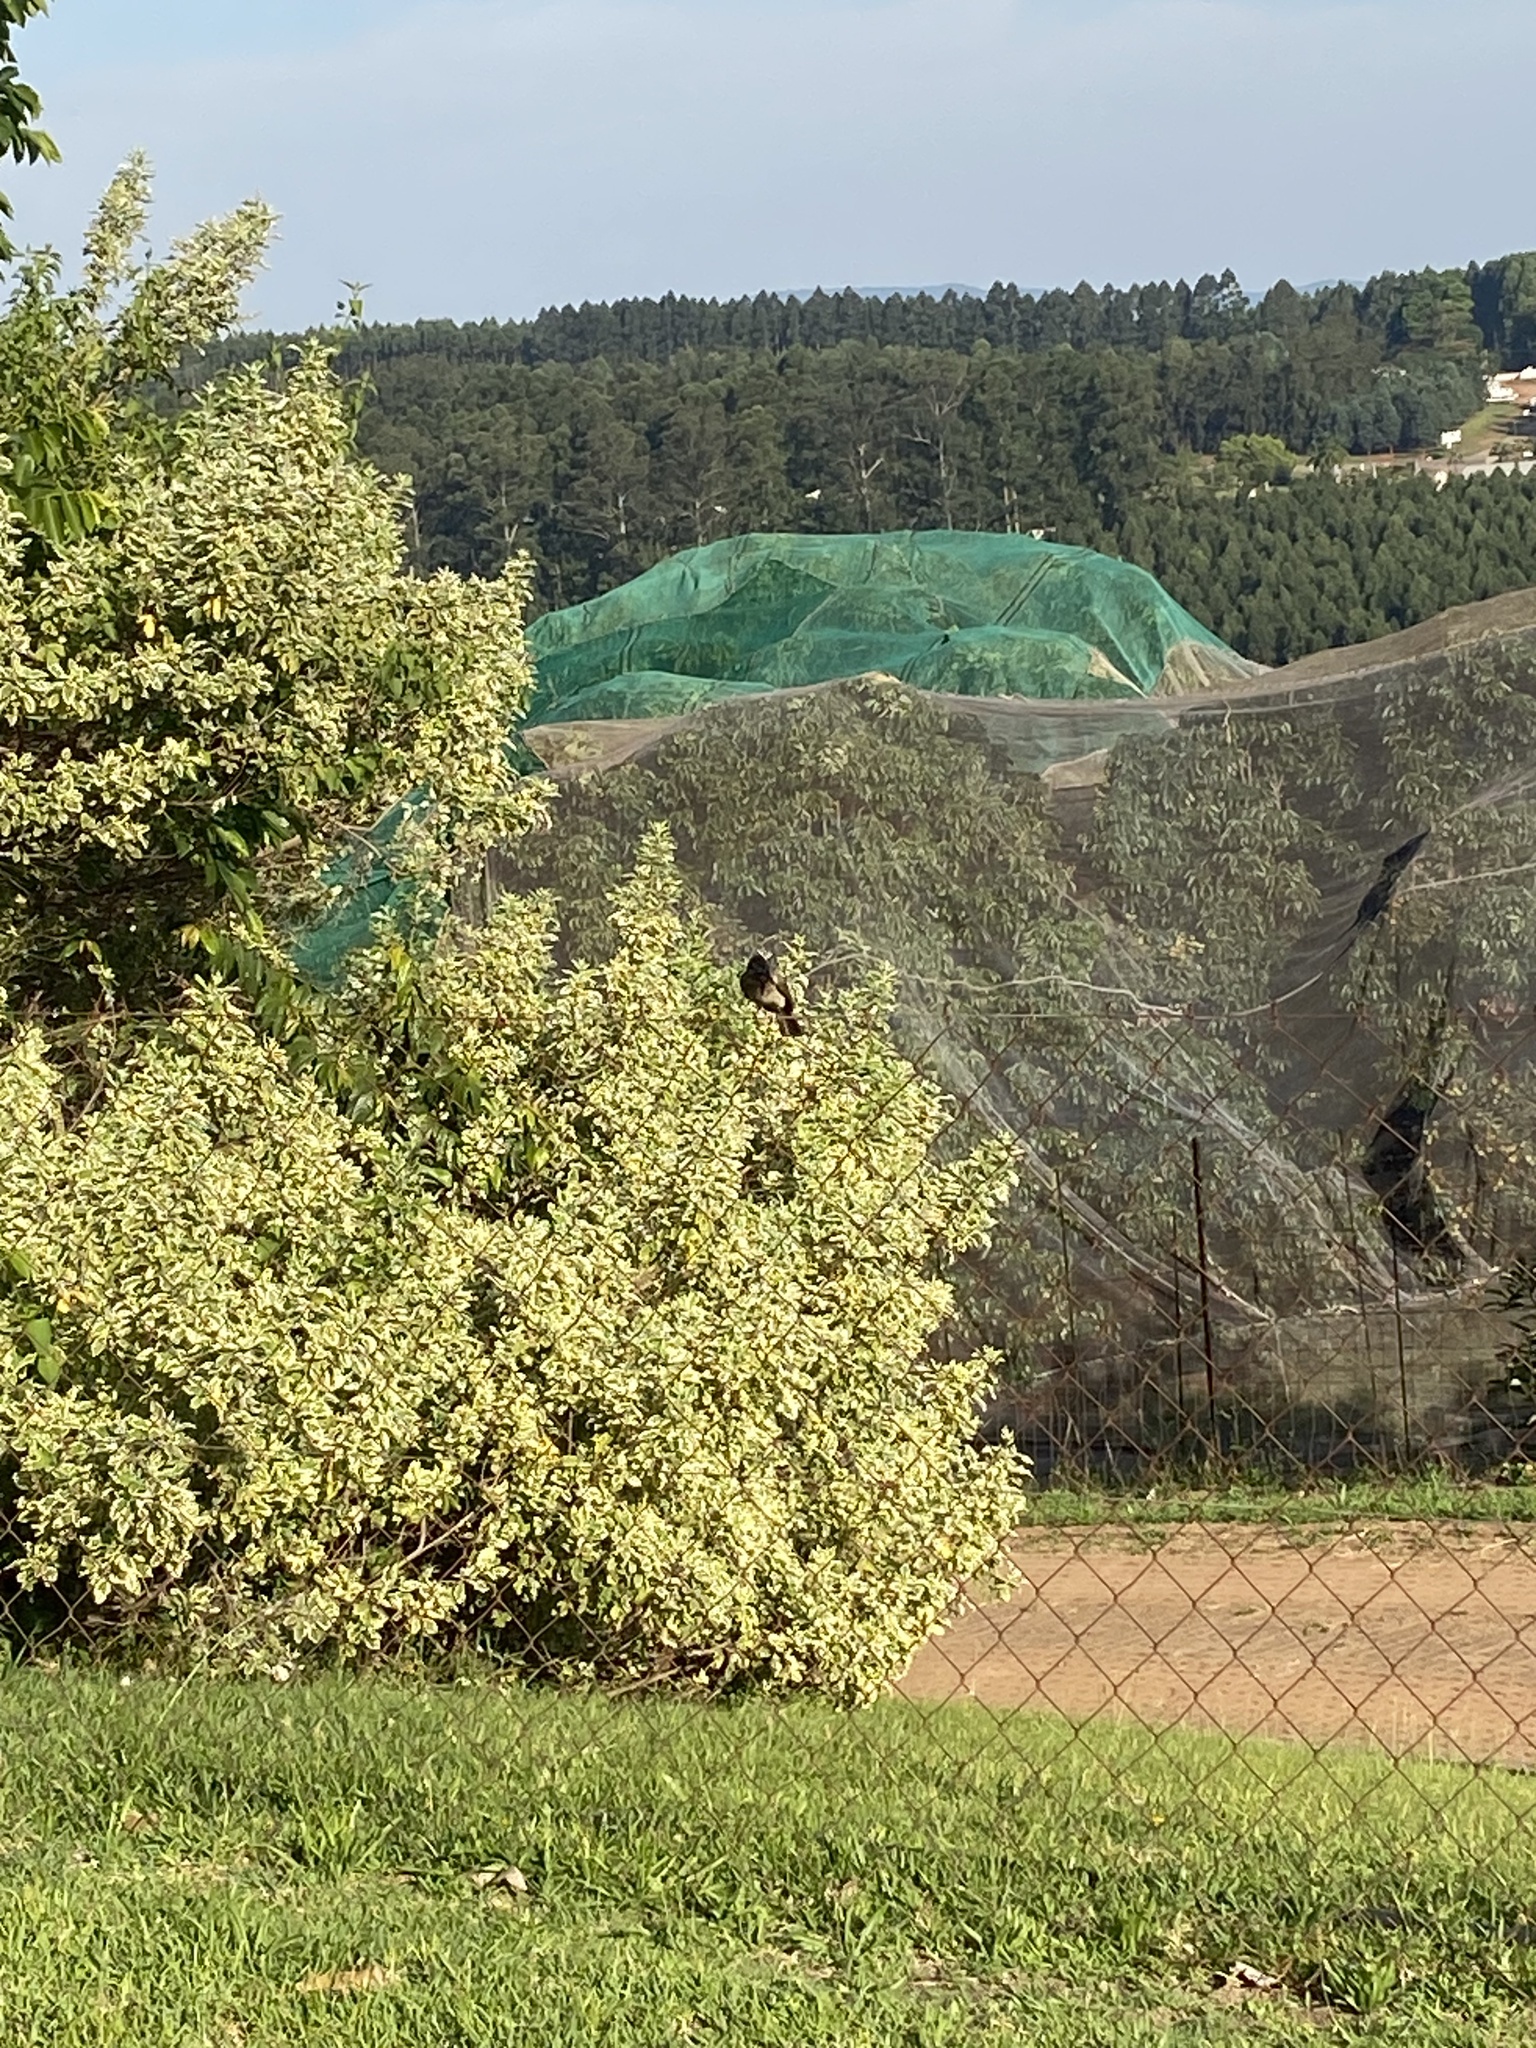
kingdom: Animalia
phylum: Chordata
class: Aves
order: Passeriformes
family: Pycnonotidae
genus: Pycnonotus
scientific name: Pycnonotus barbatus
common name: Common bulbul
